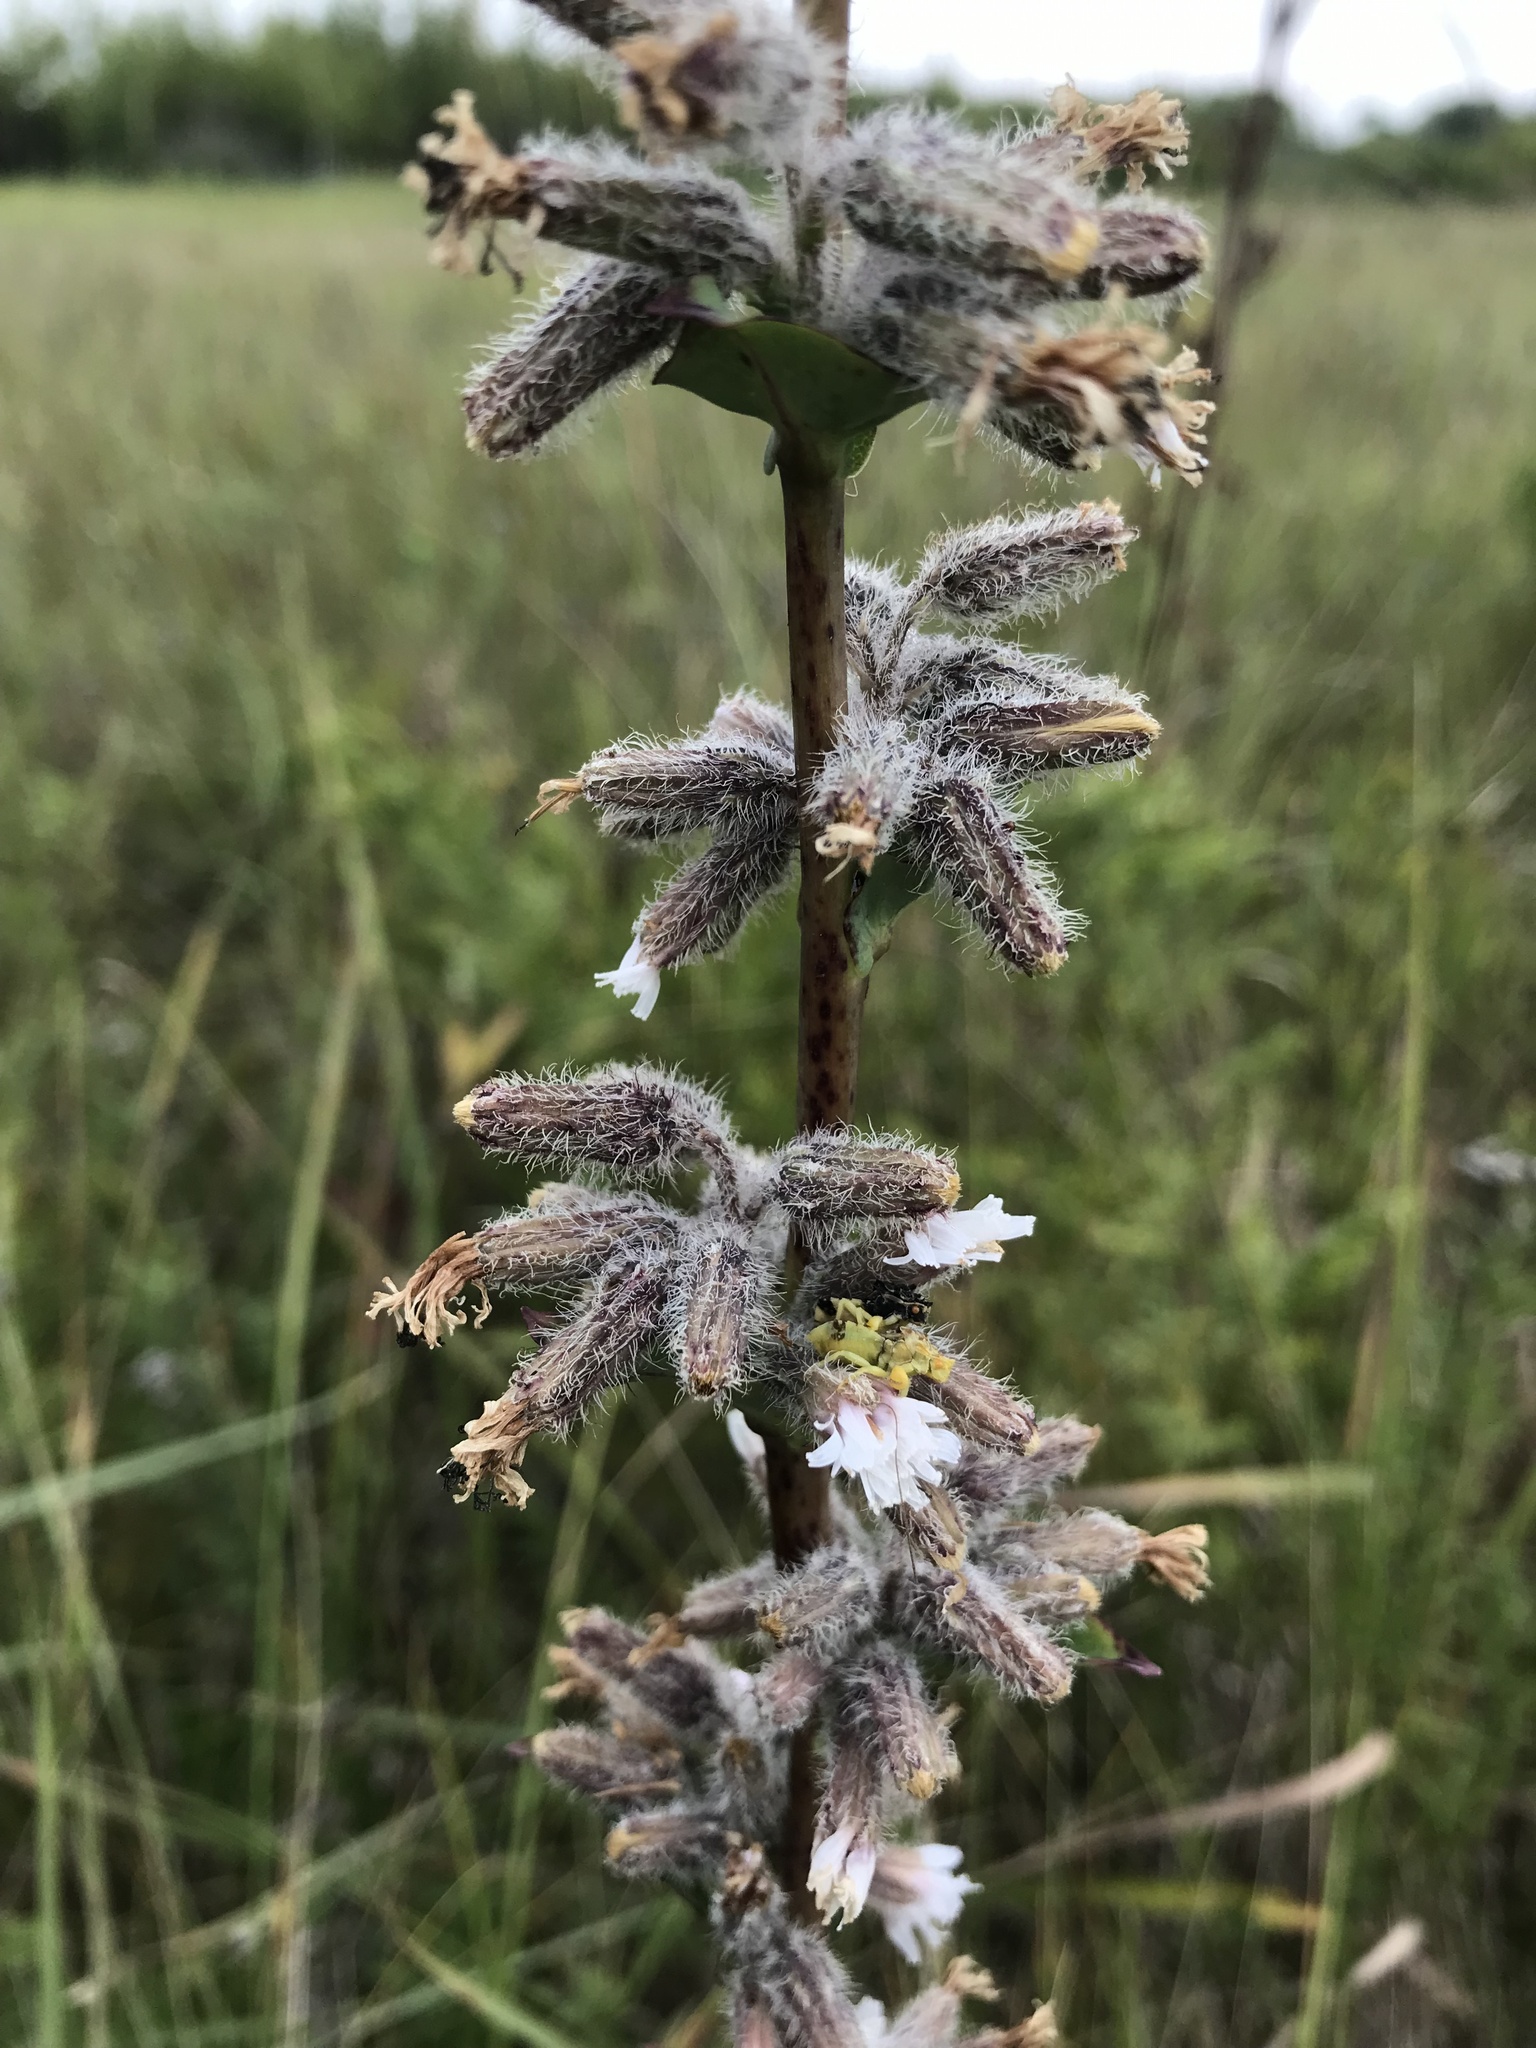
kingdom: Plantae
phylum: Tracheophyta
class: Magnoliopsida
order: Asterales
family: Asteraceae
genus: Nabalus
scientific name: Nabalus racemosus
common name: Glaucous white lettuce
